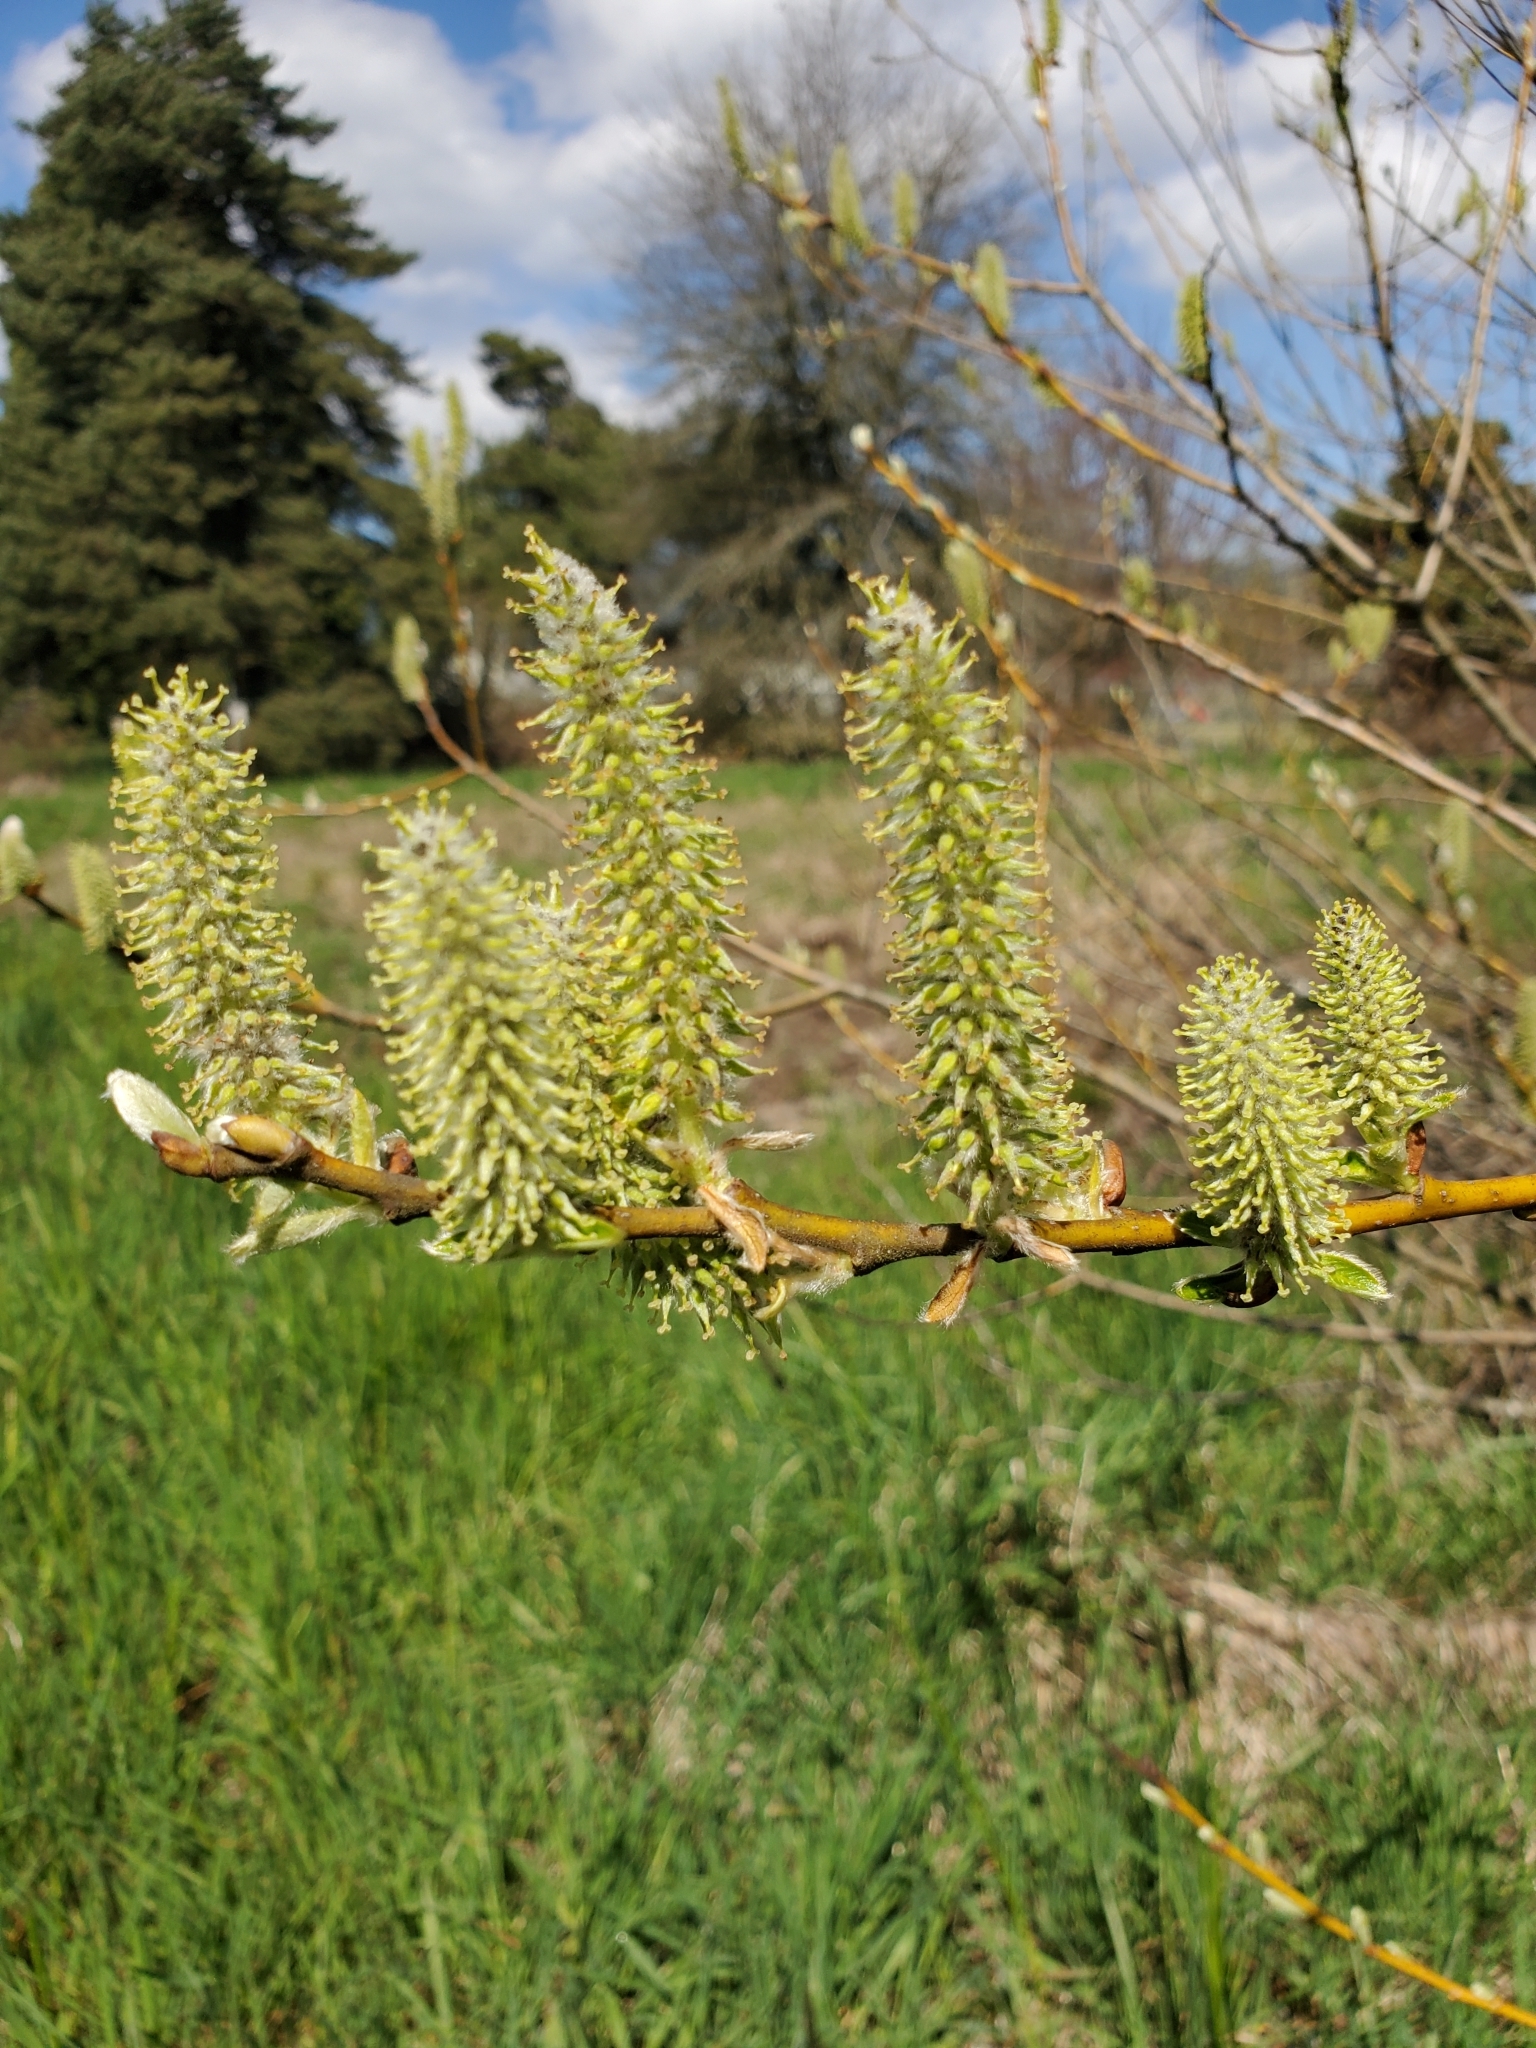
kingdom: Plantae
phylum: Tracheophyta
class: Magnoliopsida
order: Malpighiales
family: Salicaceae
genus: Salix
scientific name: Salix sitchensis
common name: Sitka willow
